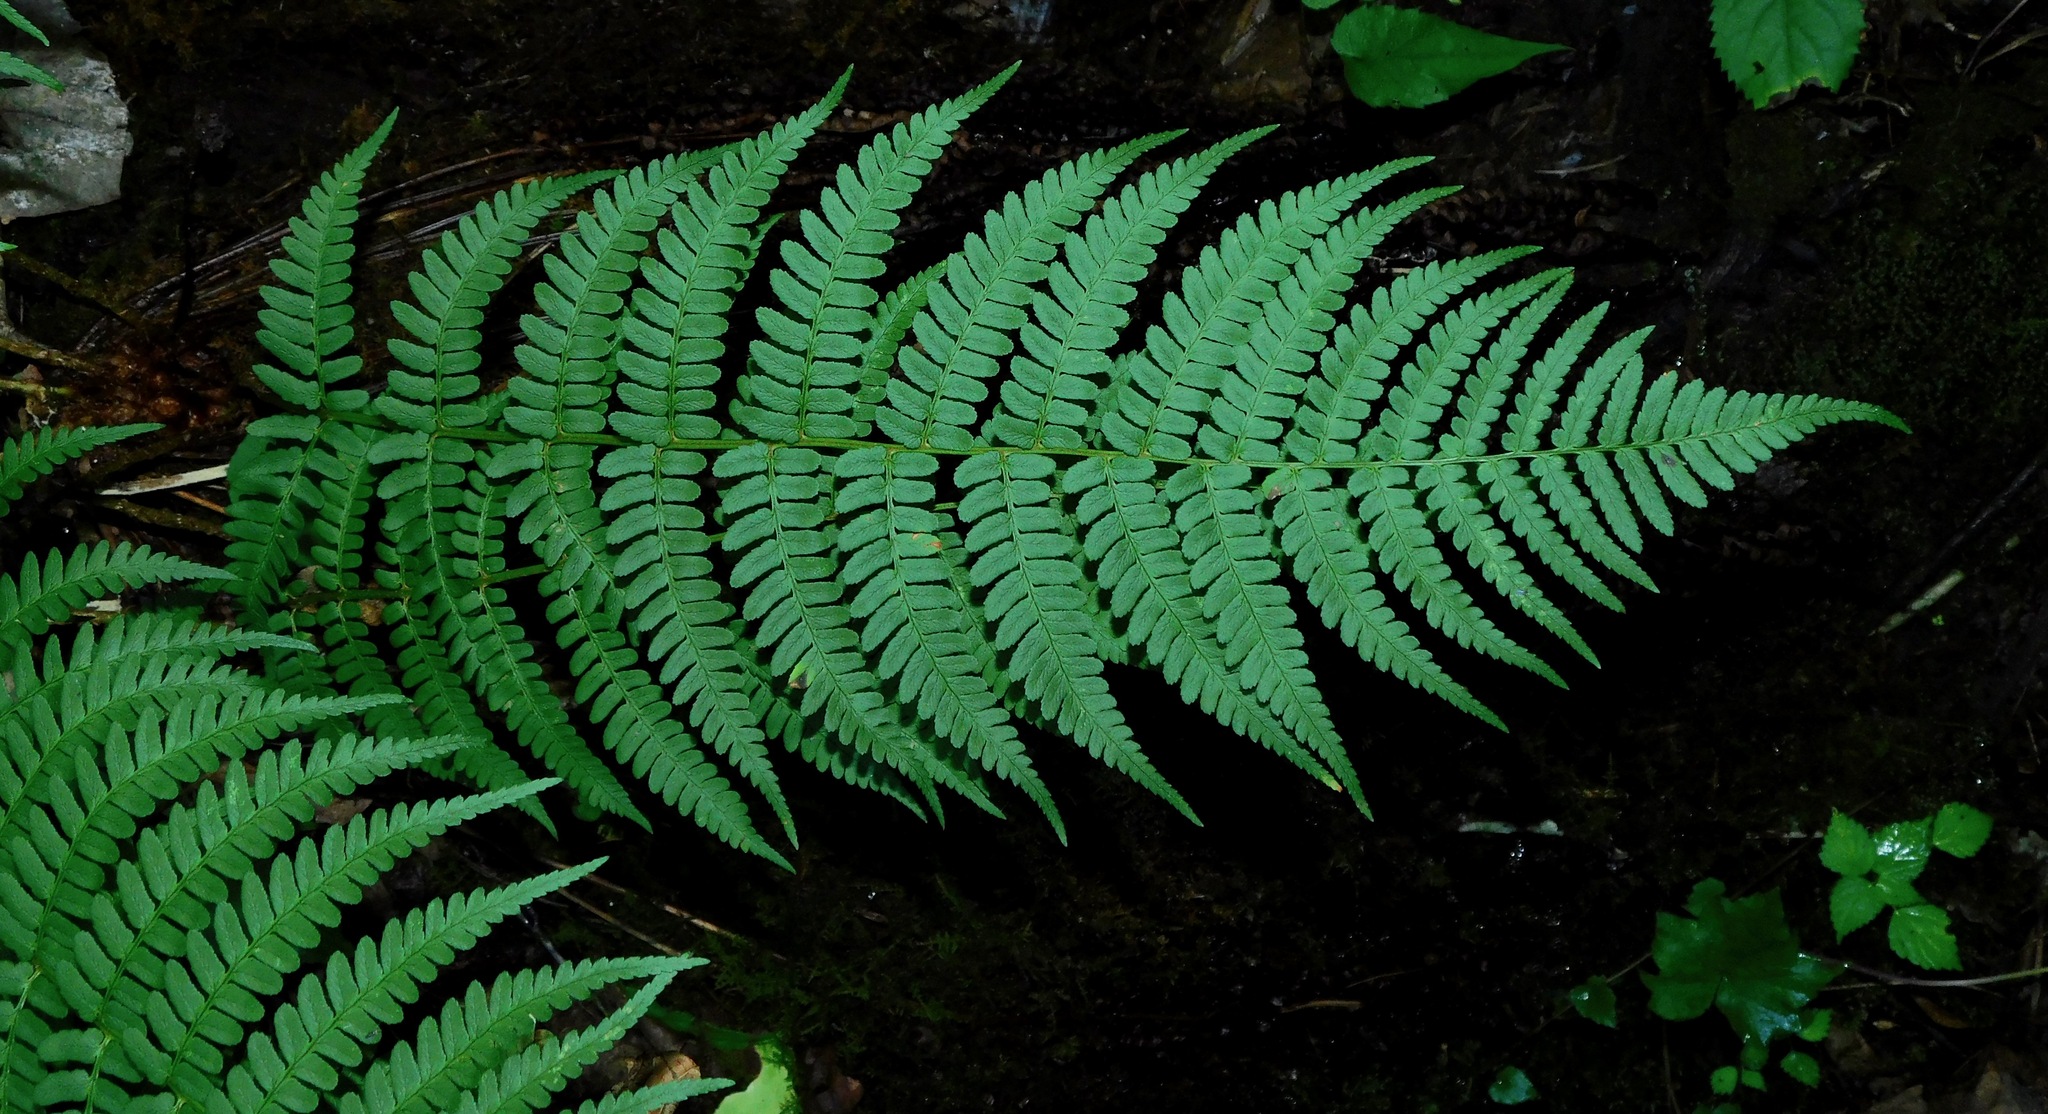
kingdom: Plantae
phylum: Tracheophyta
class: Polypodiopsida
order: Polypodiales
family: Dryopteridaceae
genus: Dryopteris
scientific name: Dryopteris marginalis
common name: Marginal wood fern
